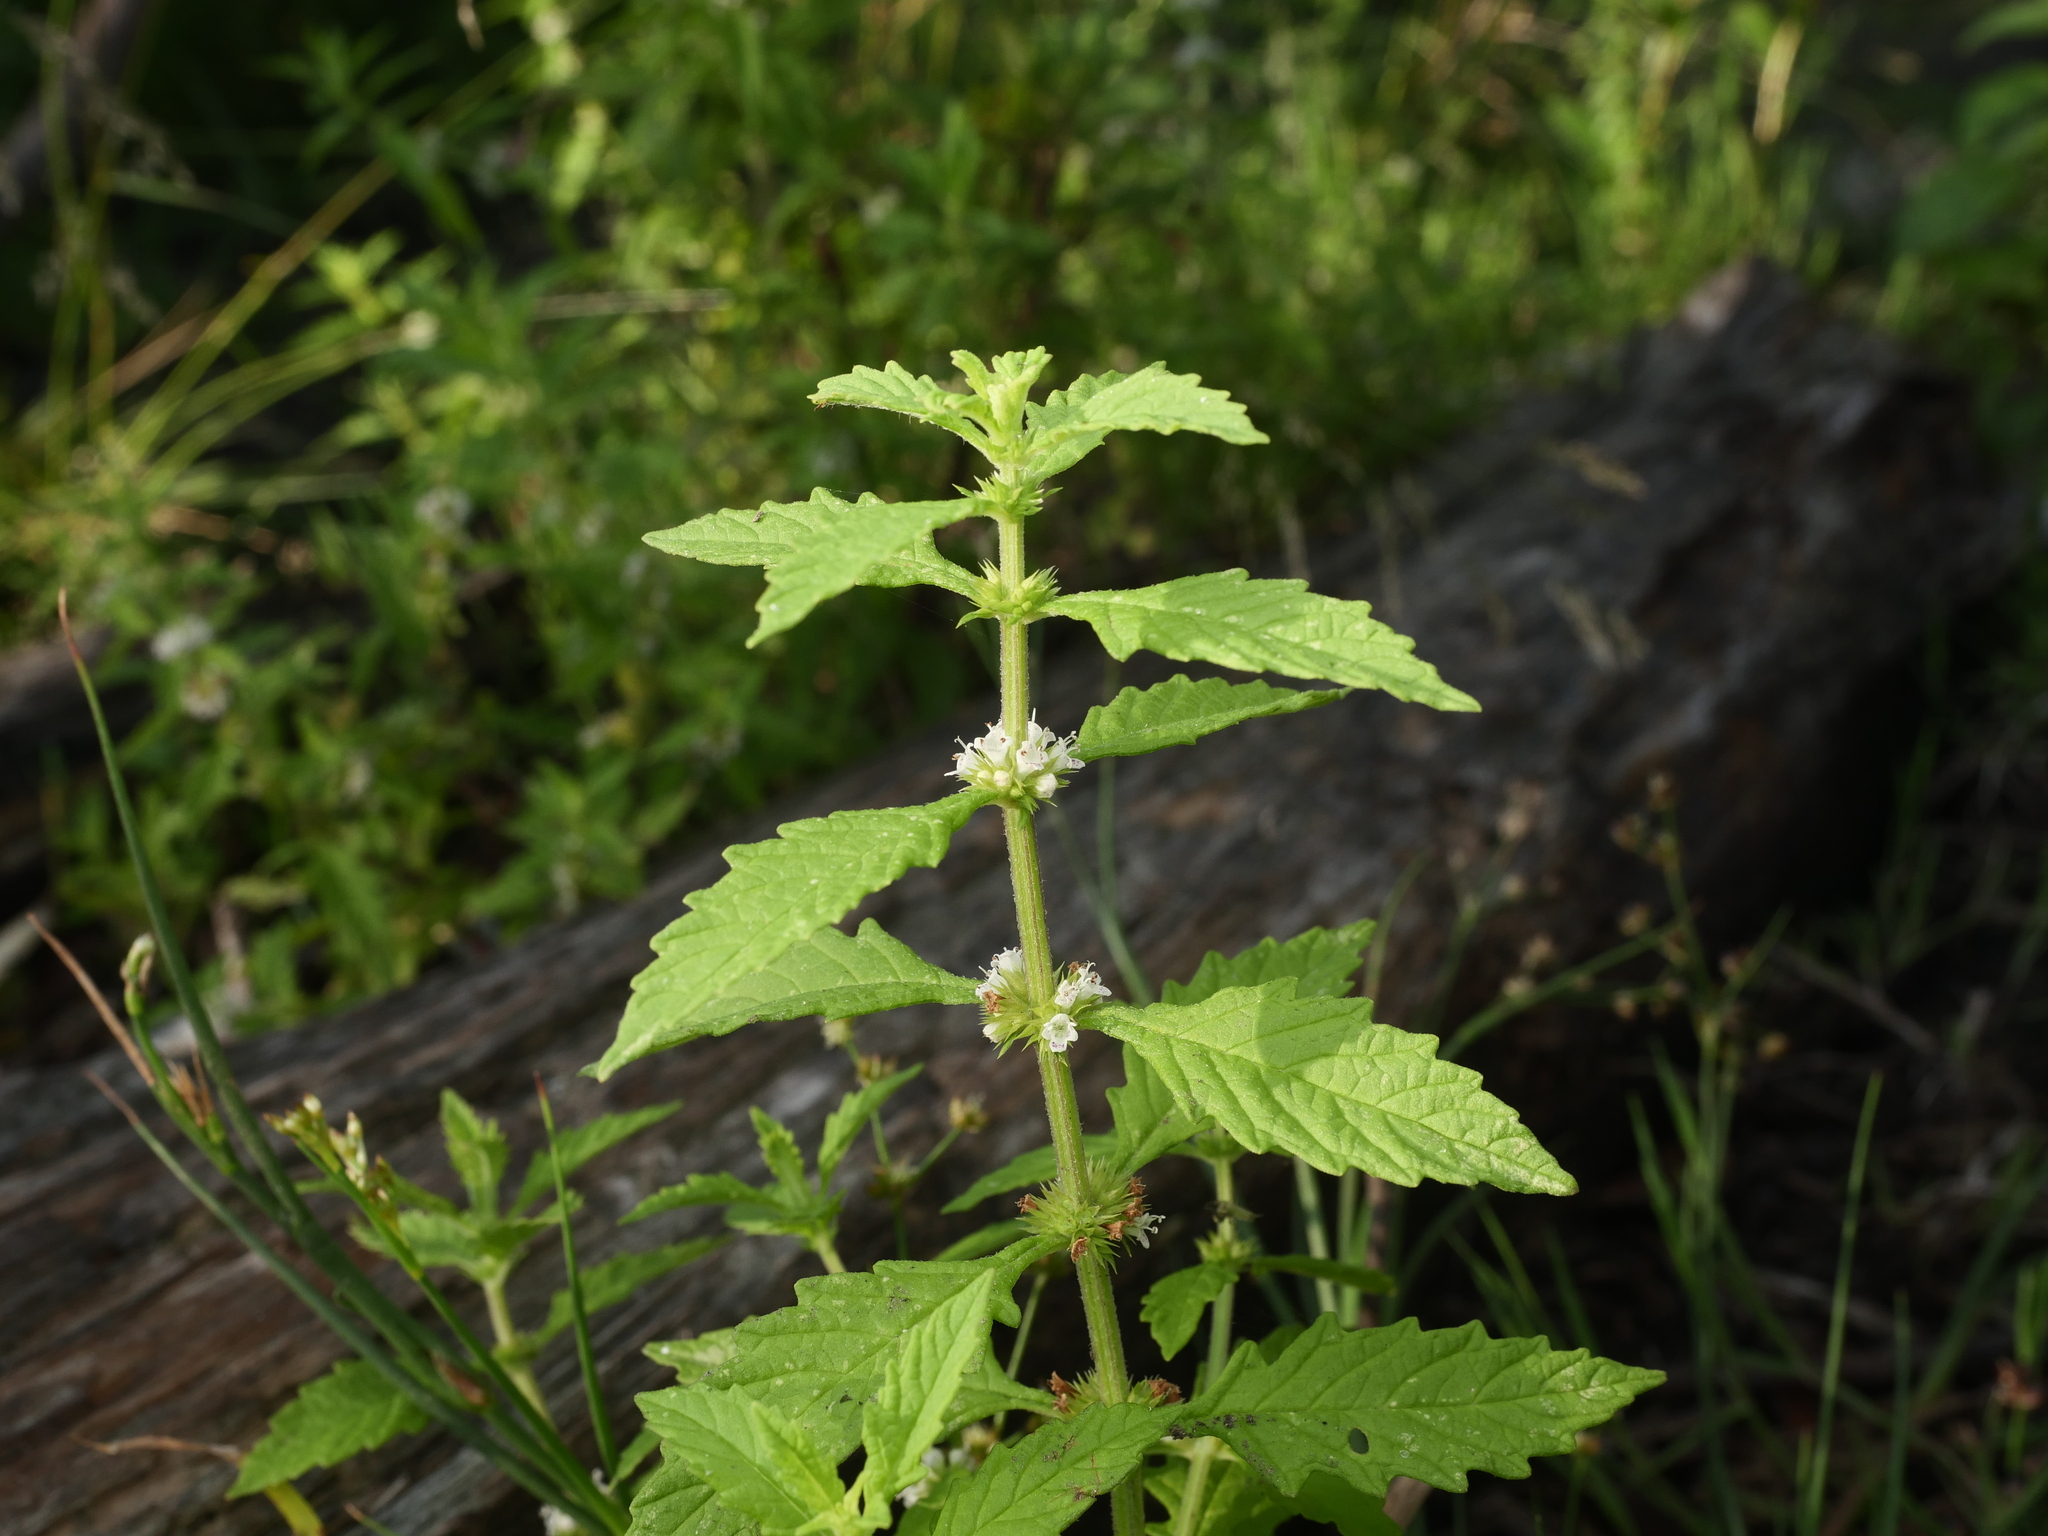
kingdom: Plantae
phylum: Tracheophyta
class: Magnoliopsida
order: Lamiales
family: Lamiaceae
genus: Lycopus
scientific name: Lycopus europaeus
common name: European bugleweed
